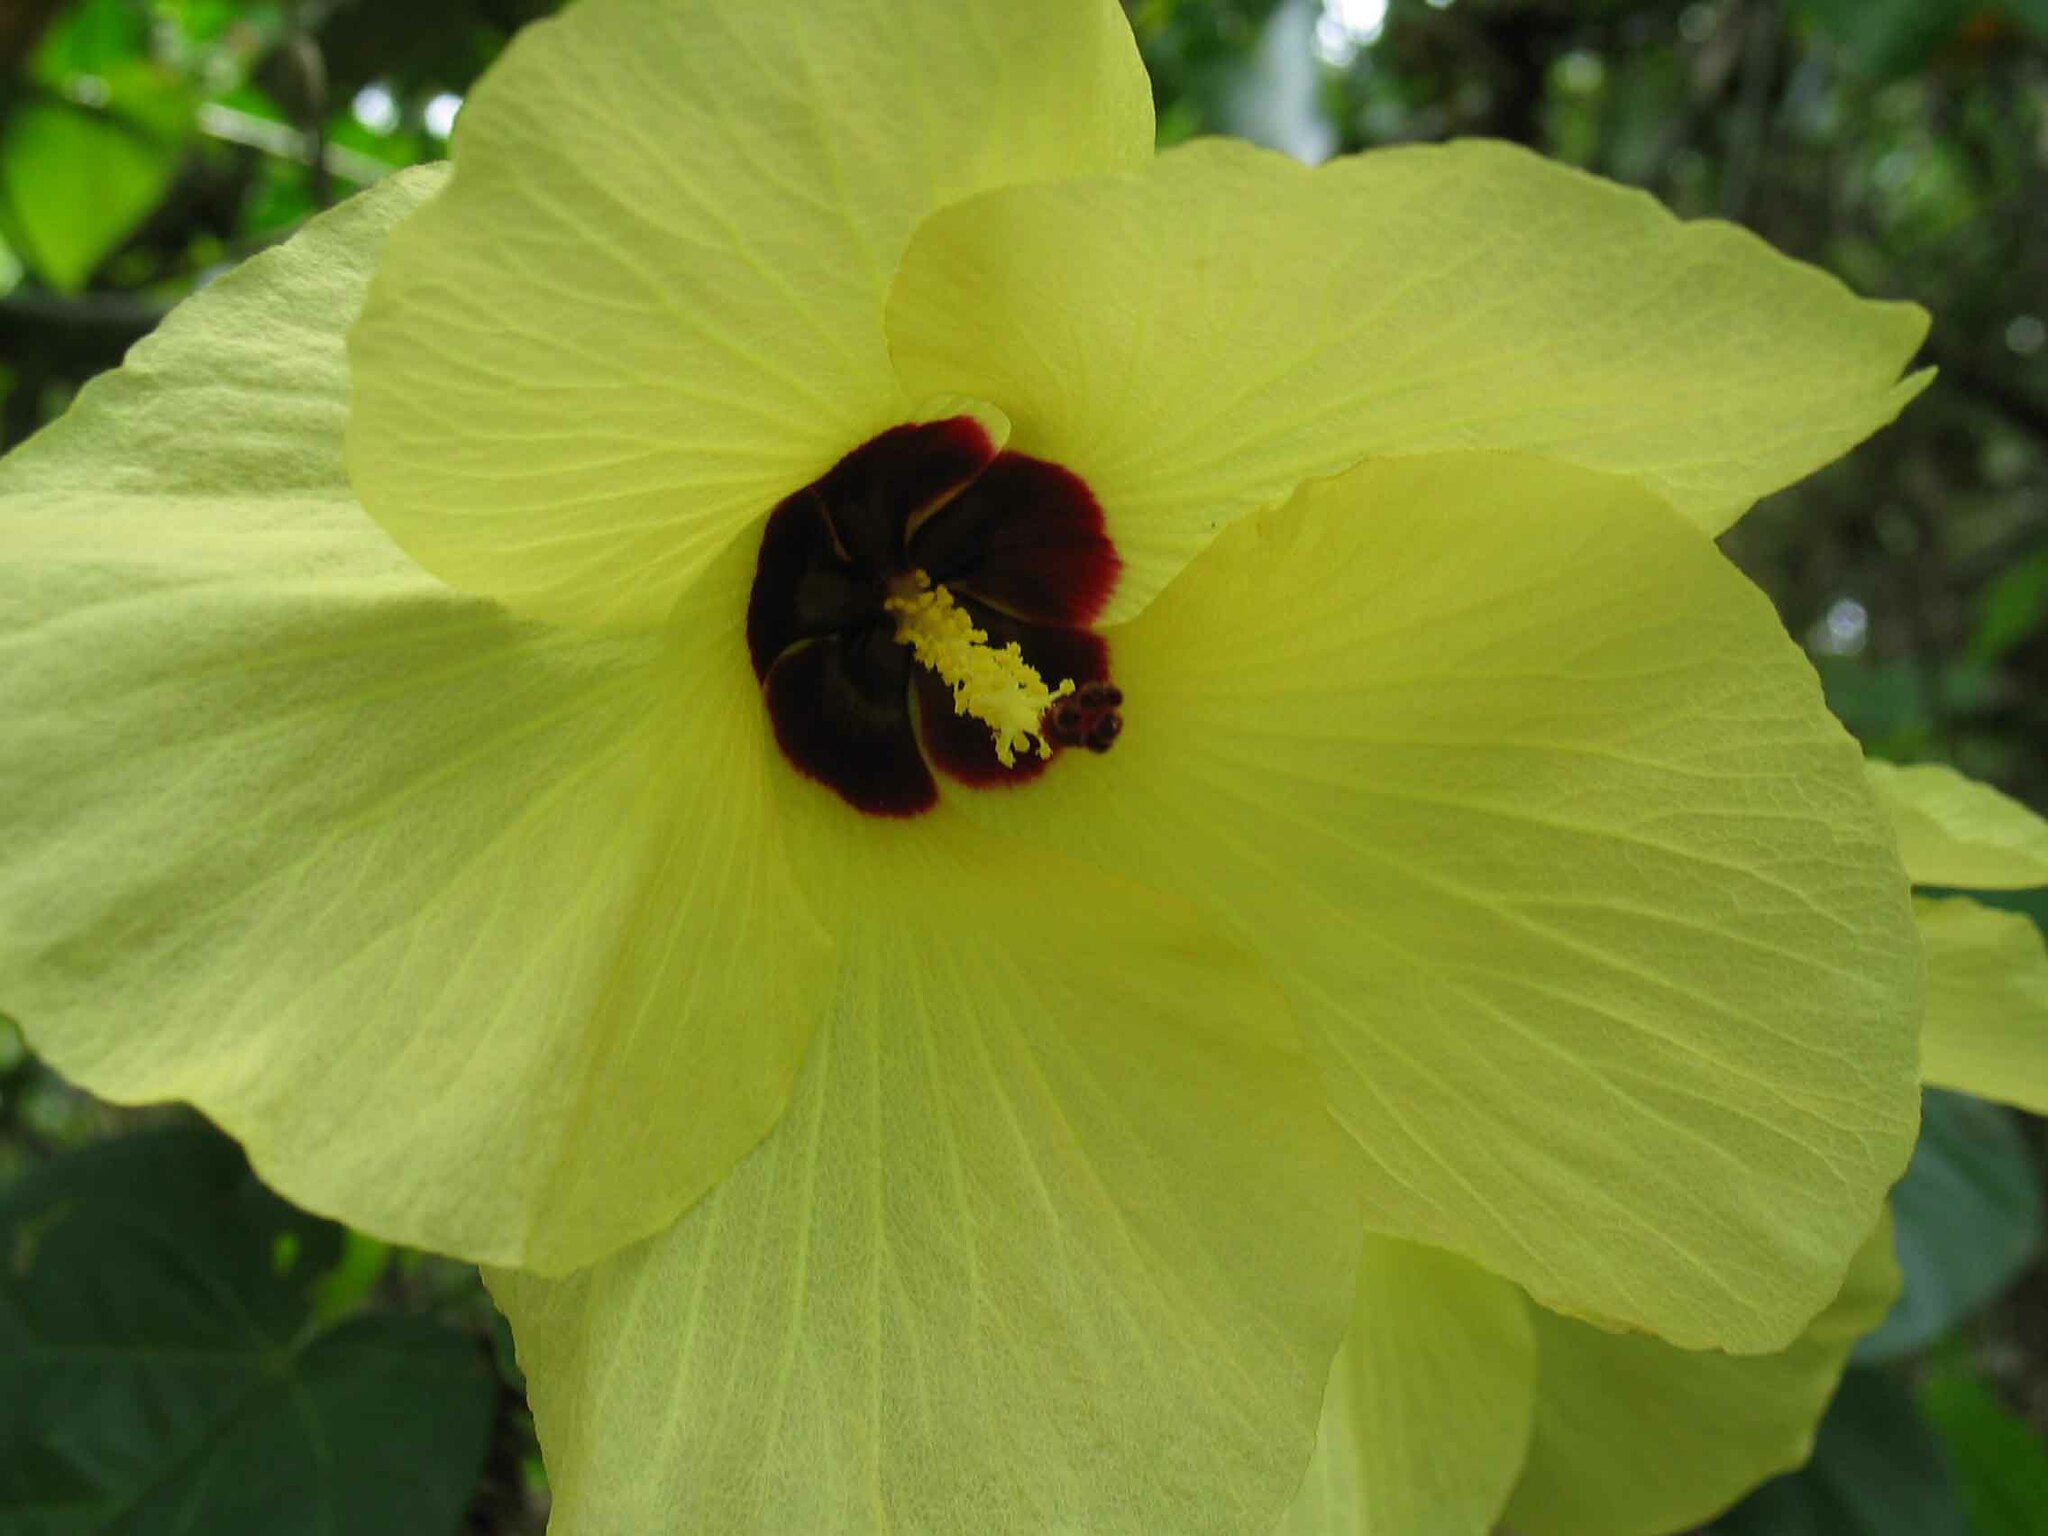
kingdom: Plantae
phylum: Tracheophyta
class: Magnoliopsida
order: Malvales
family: Malvaceae
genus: Talipariti
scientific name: Talipariti tiliaceum
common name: Sea hibiscus
